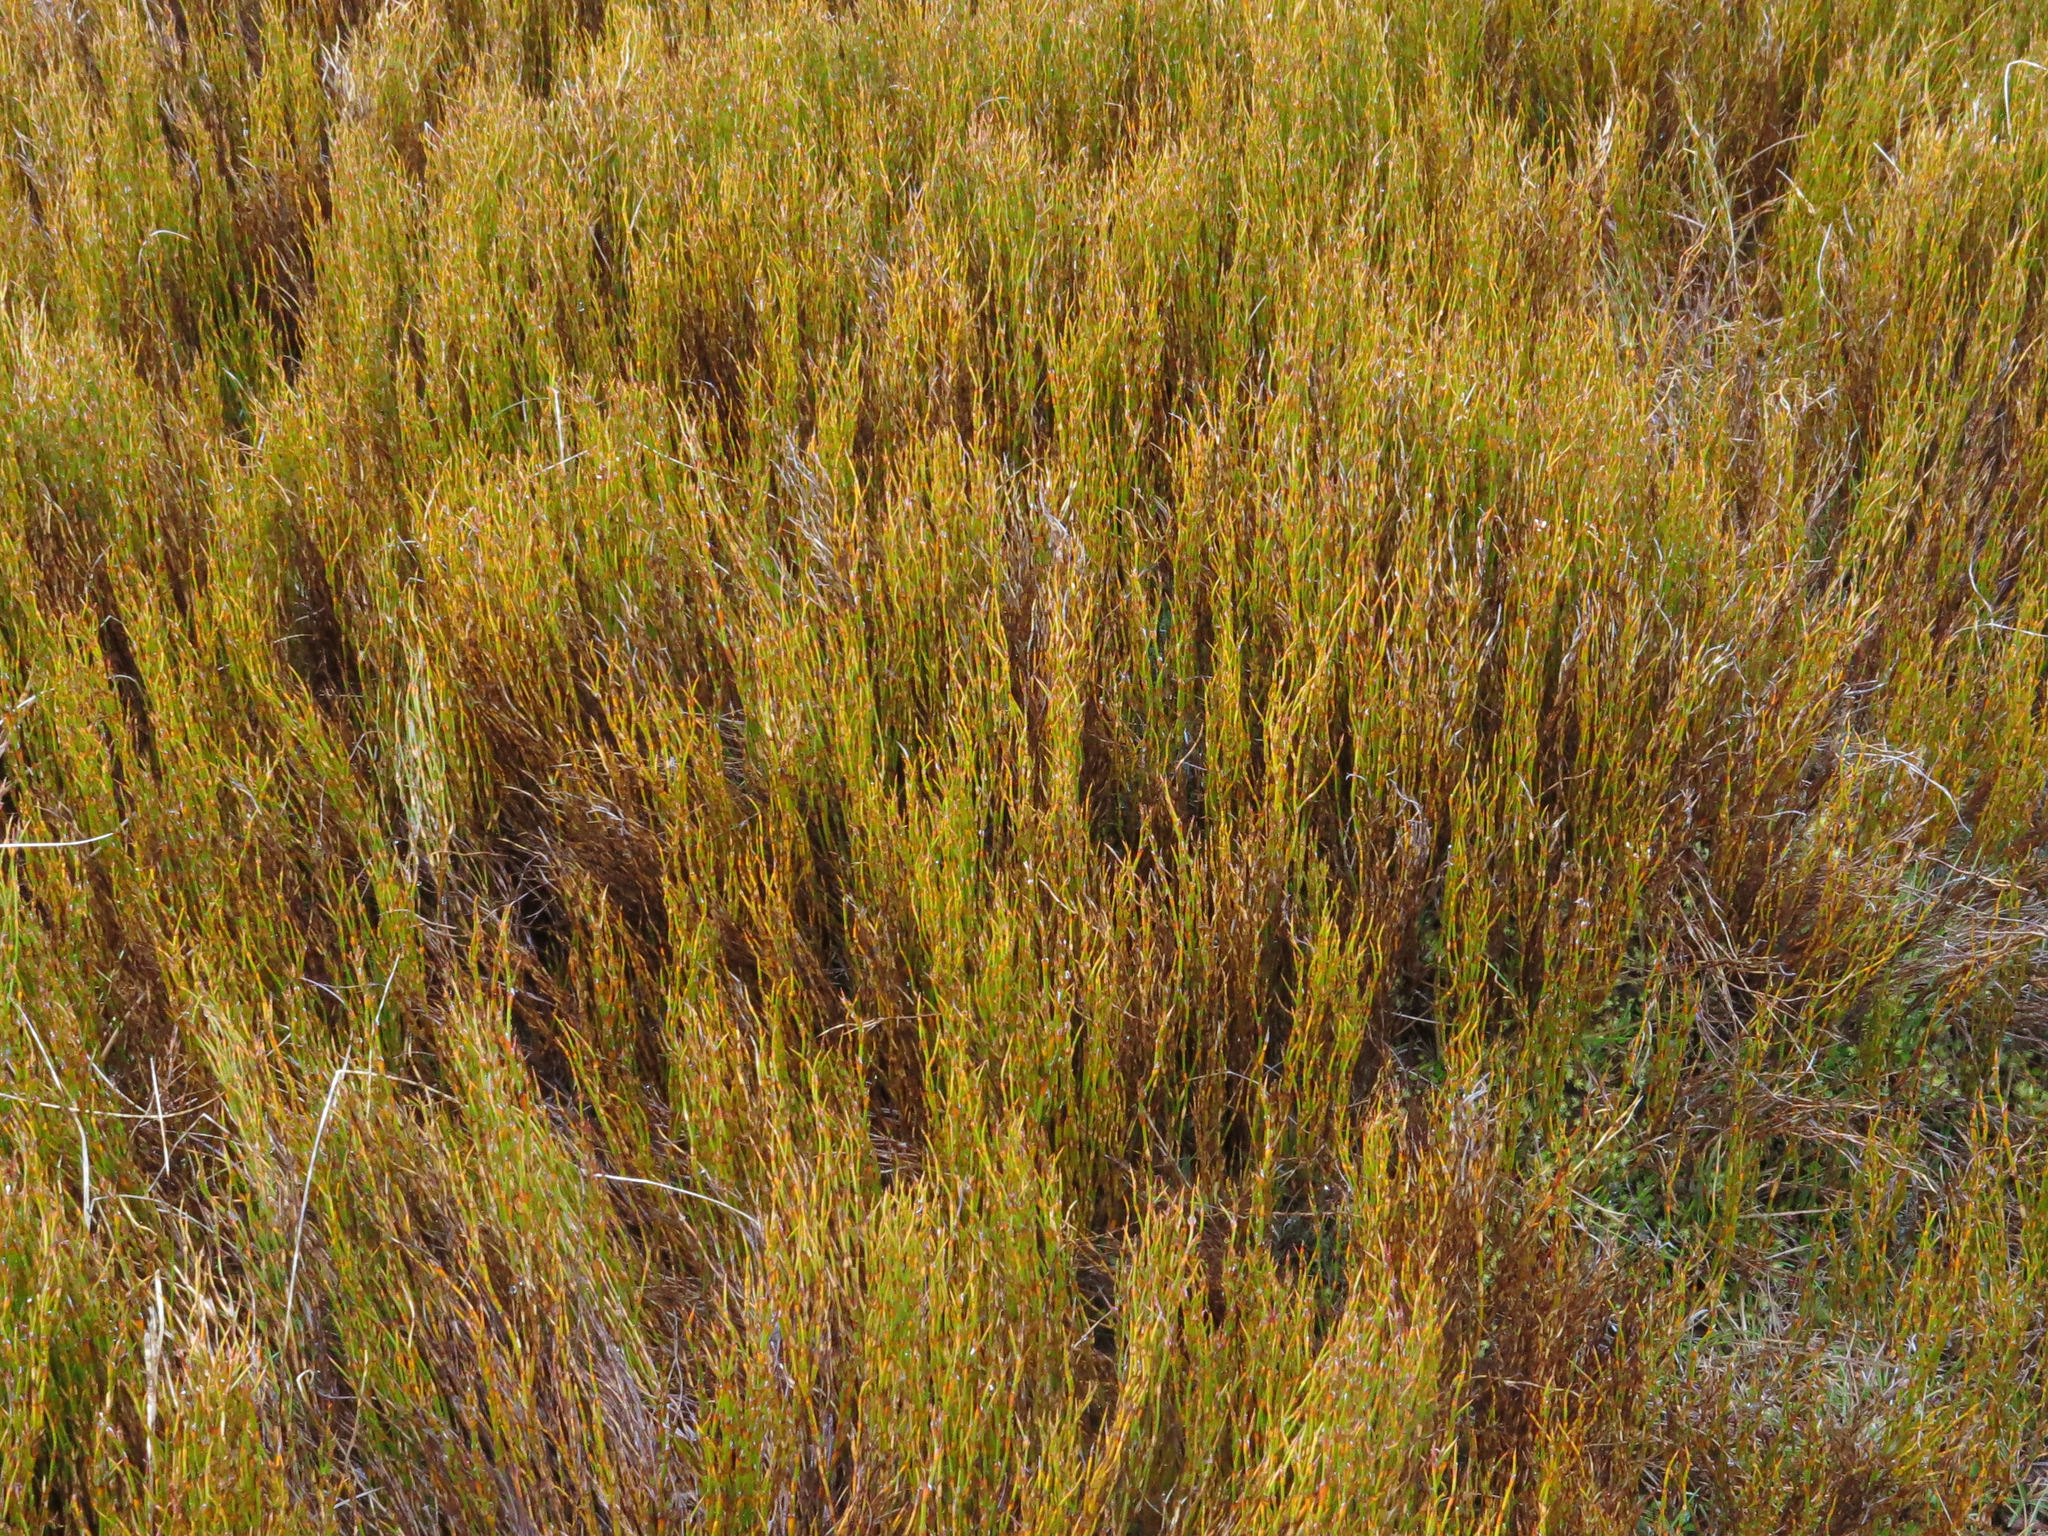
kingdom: Plantae
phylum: Tracheophyta
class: Liliopsida
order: Poales
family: Restionaceae
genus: Empodisma
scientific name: Empodisma minus
